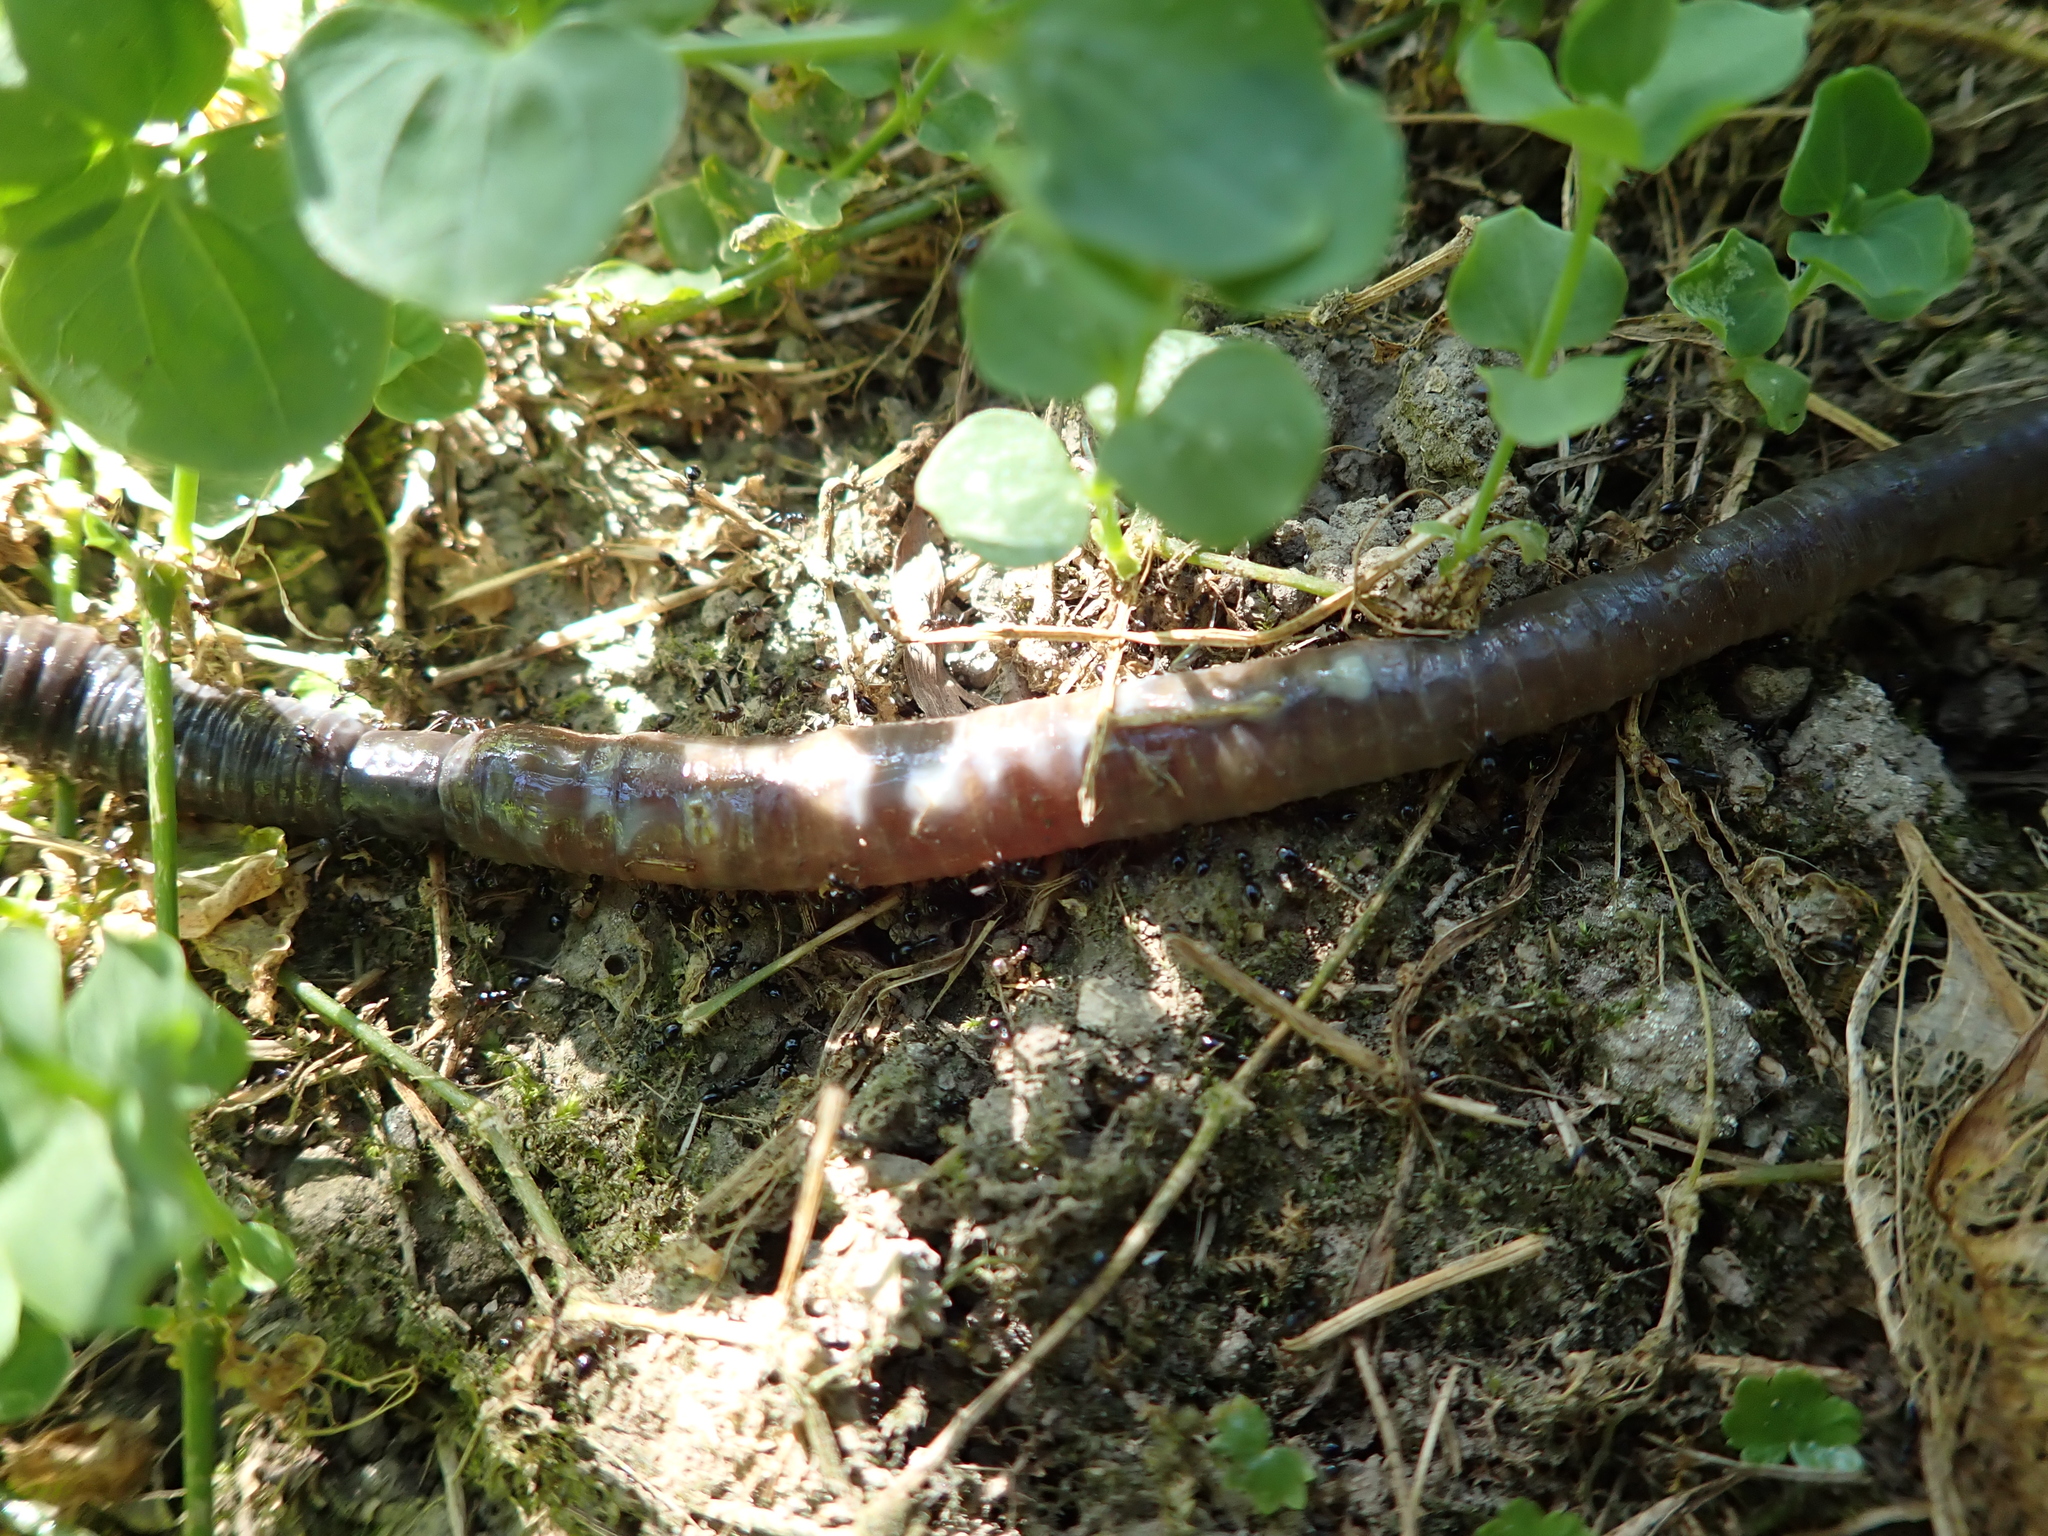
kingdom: Animalia
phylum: Annelida
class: Clitellata
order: Crassiclitellata
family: Megascolecidae
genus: Amynthas
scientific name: Amynthas aspergillus
